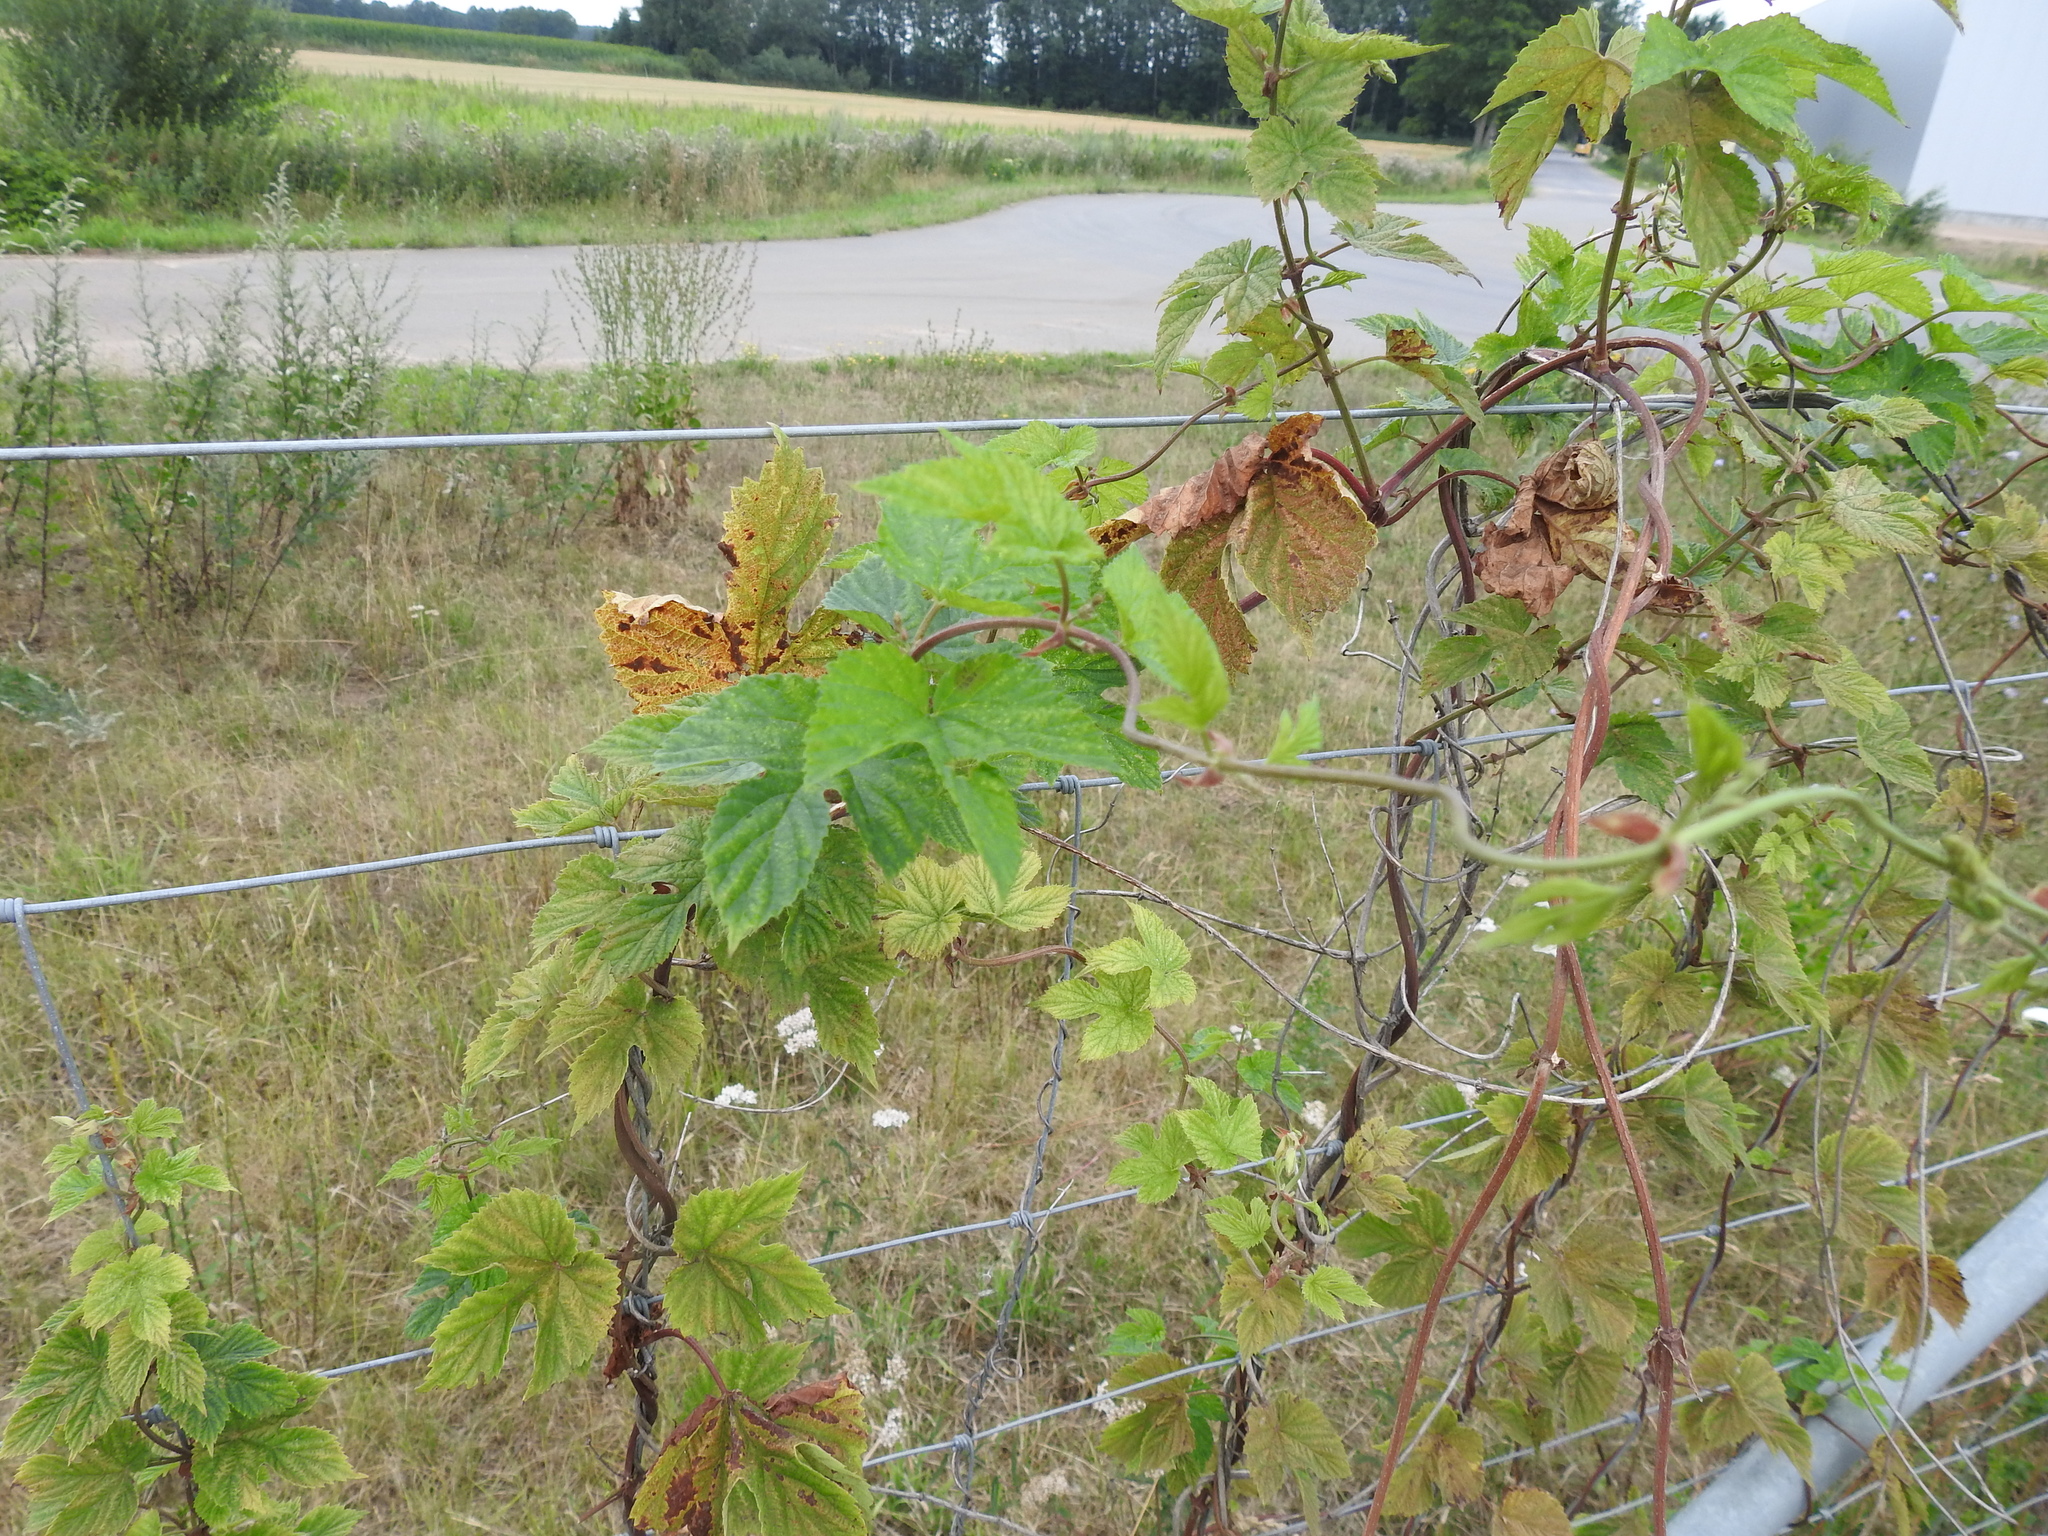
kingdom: Plantae
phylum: Tracheophyta
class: Magnoliopsida
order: Rosales
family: Cannabaceae
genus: Humulus
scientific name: Humulus lupulus
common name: Hop
